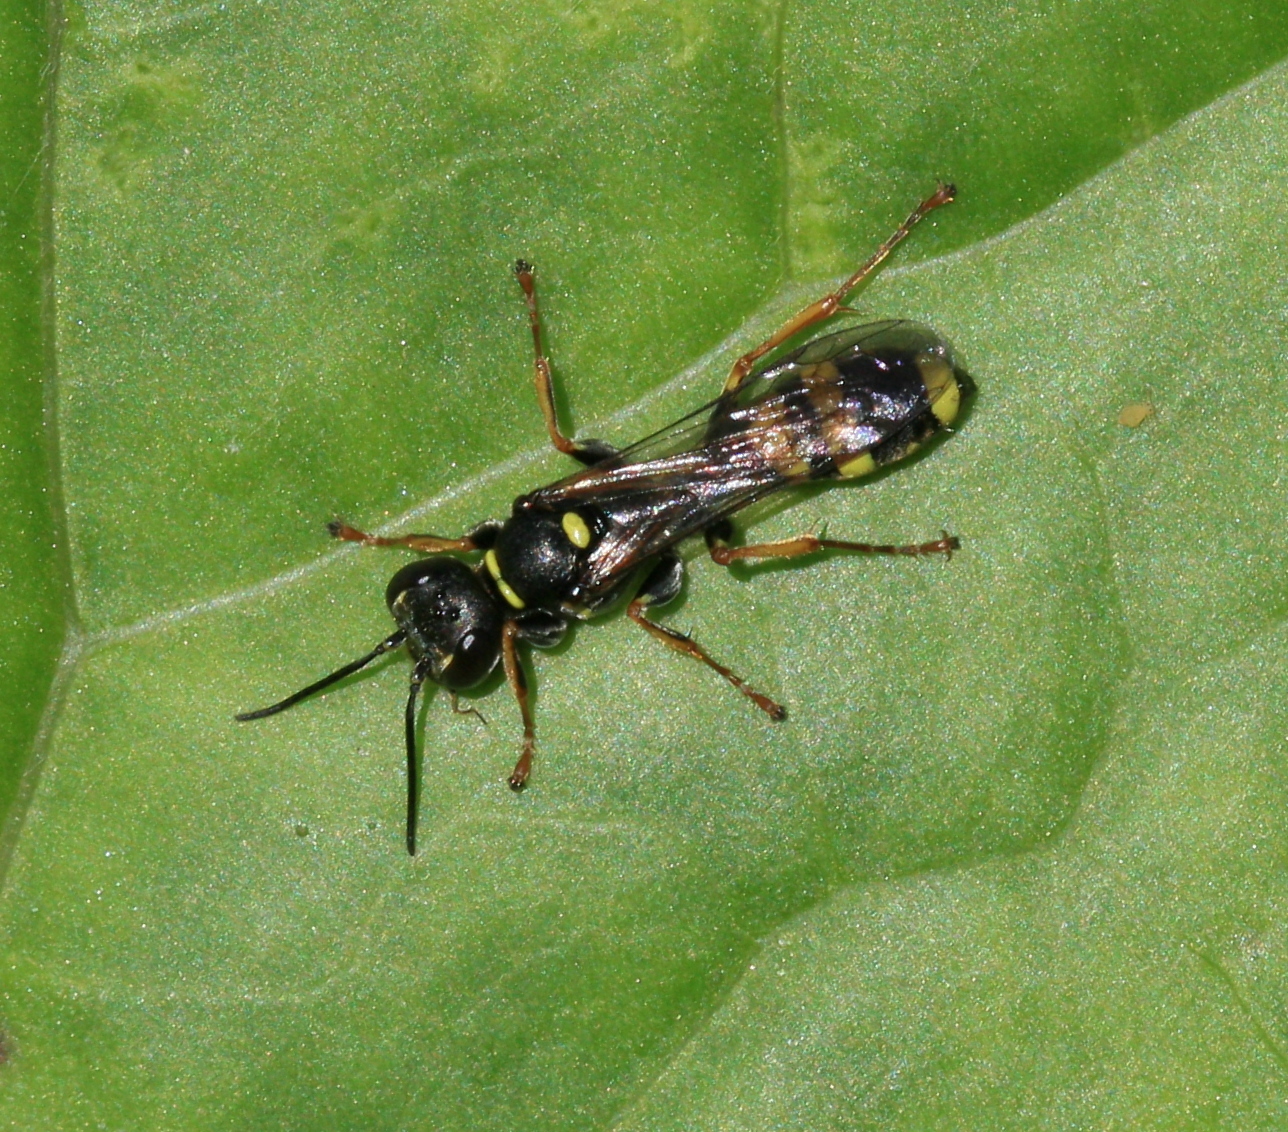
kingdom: Animalia
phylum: Arthropoda
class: Insecta
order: Hymenoptera
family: Crabronidae
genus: Mellinus
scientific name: Mellinus arvensis
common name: Field digger wasp
